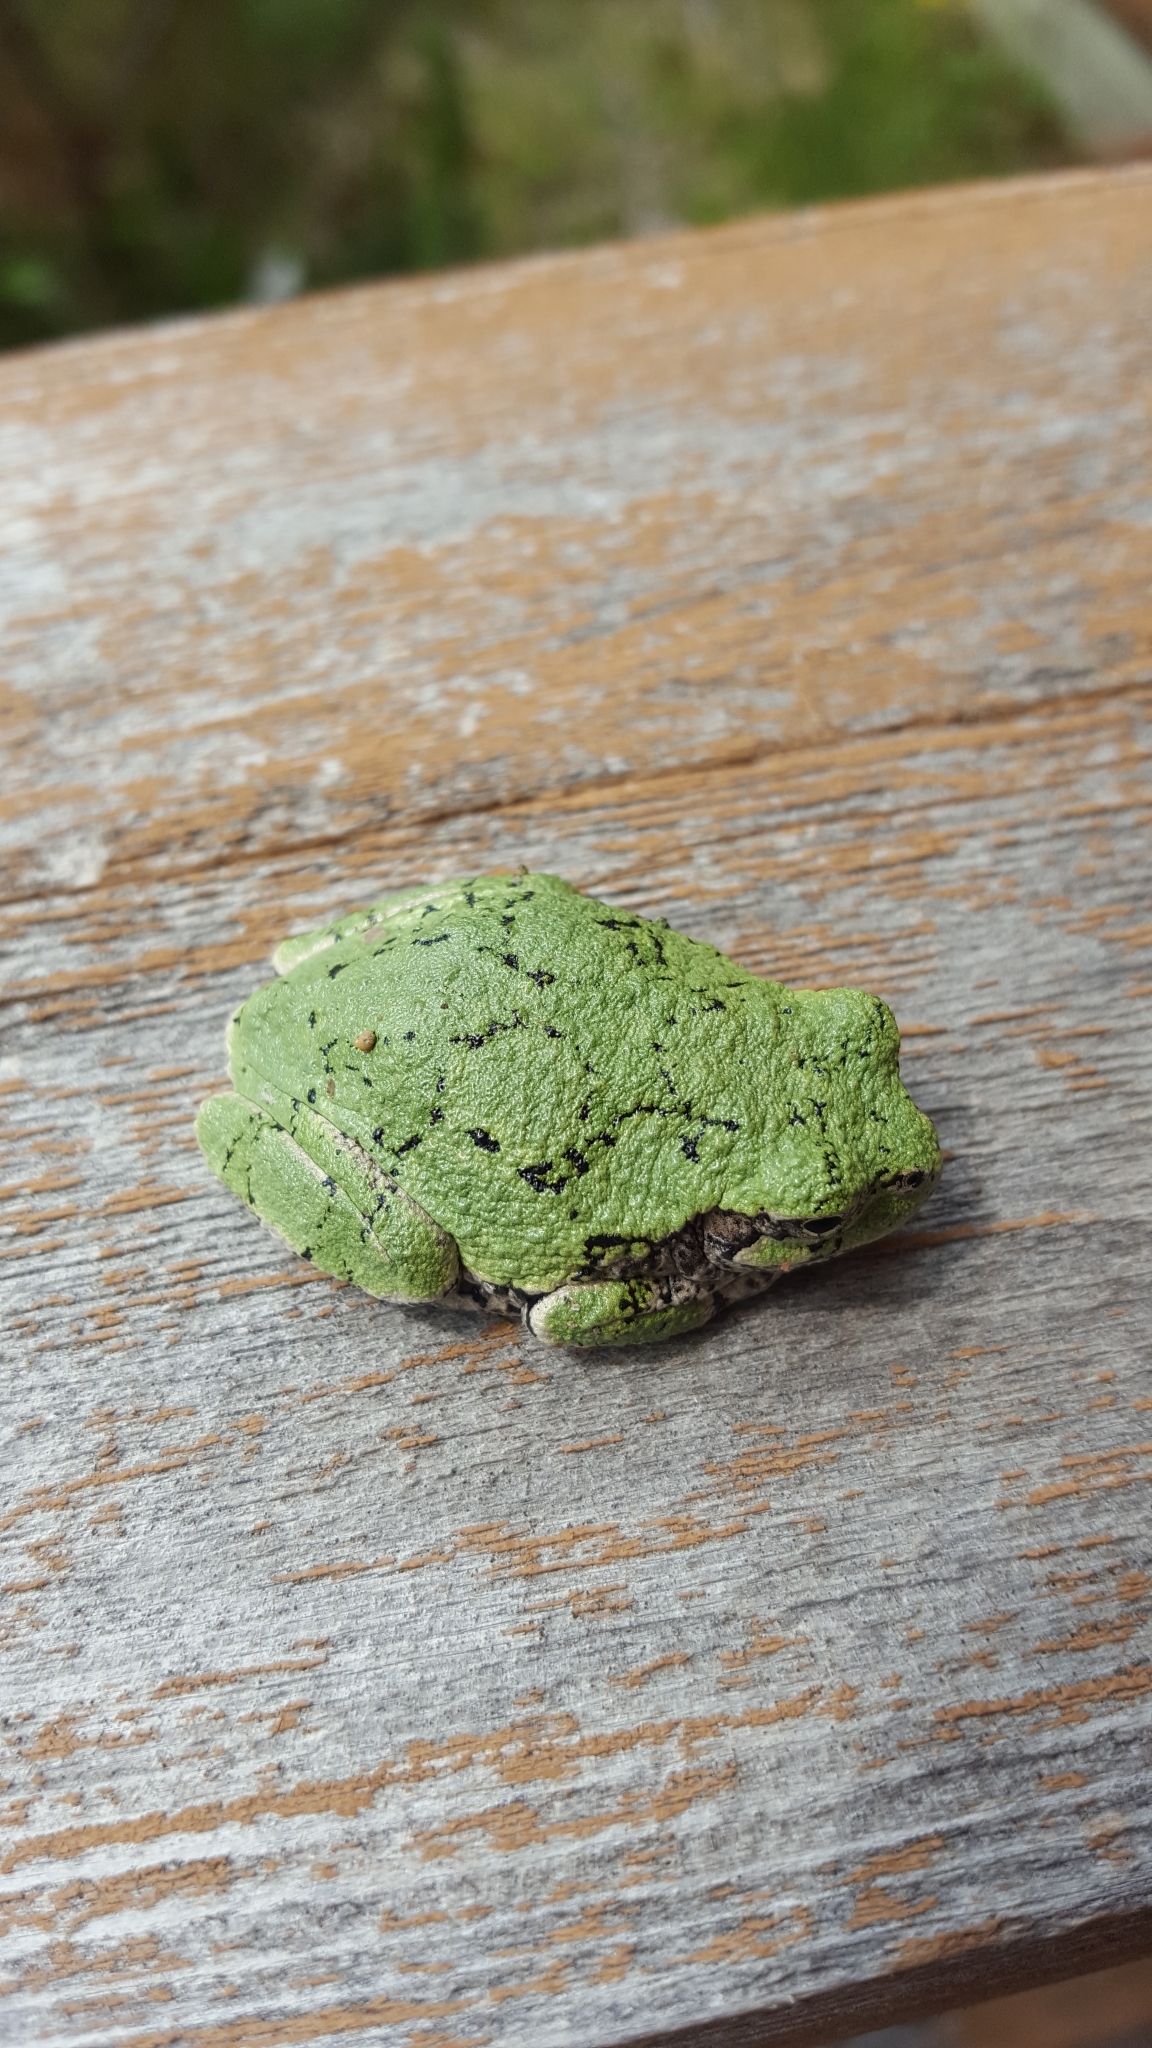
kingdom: Animalia
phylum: Chordata
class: Amphibia
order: Anura
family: Hylidae
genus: Dryophytes
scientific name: Dryophytes versicolor
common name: Gray treefrog
